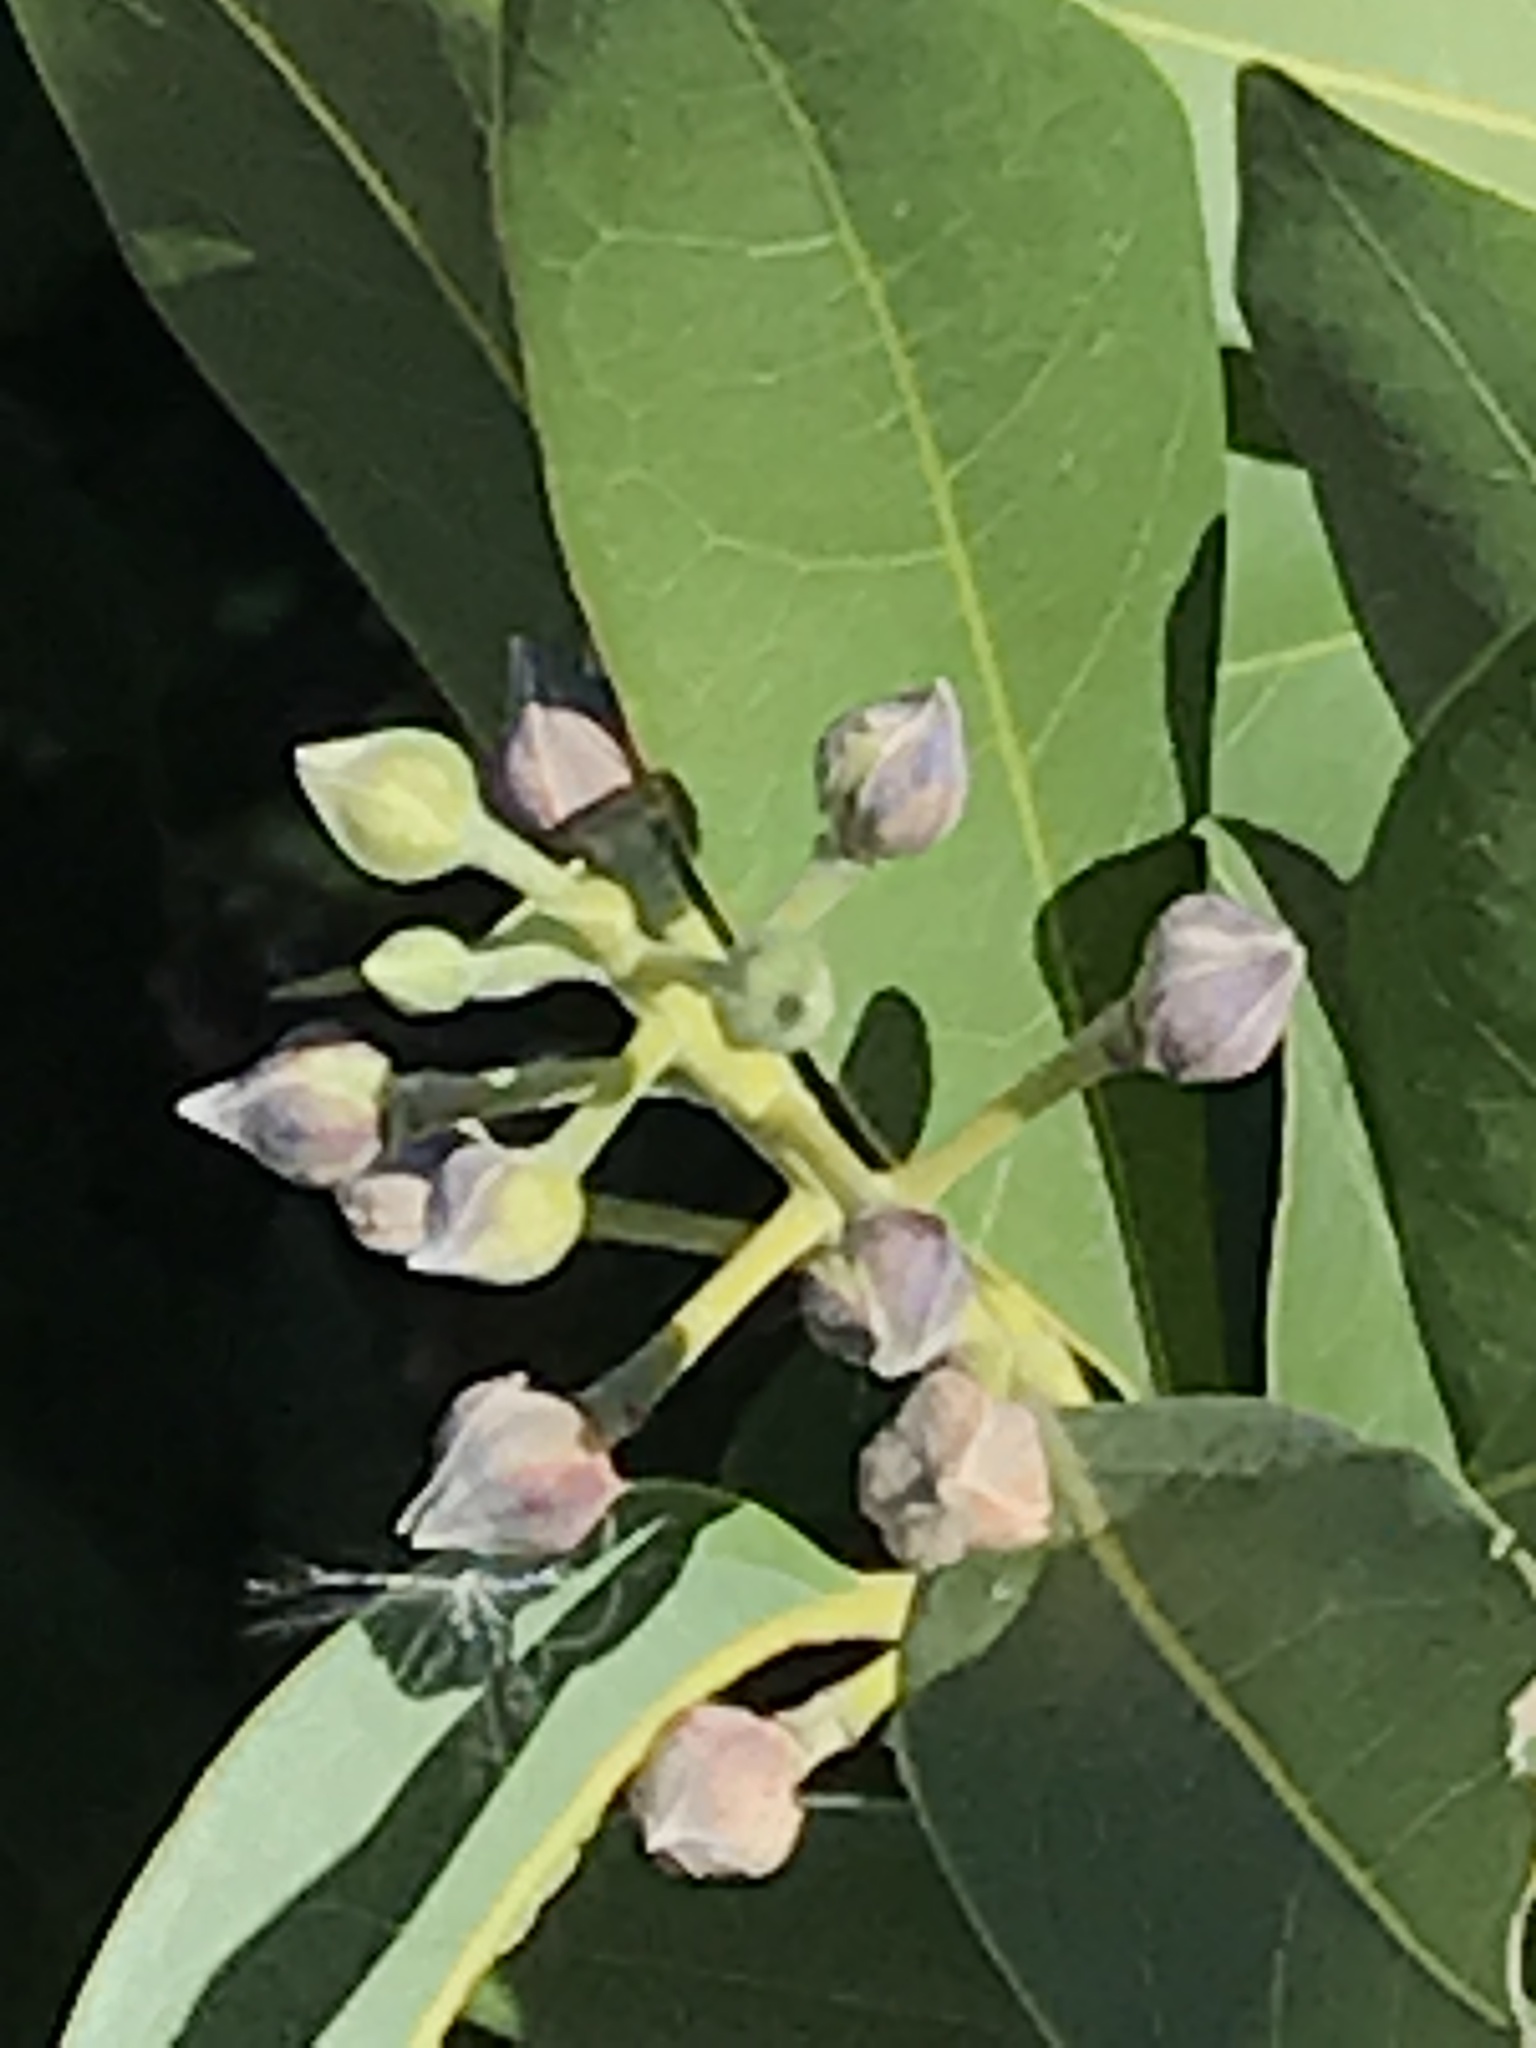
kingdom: Plantae
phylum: Tracheophyta
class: Magnoliopsida
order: Laurales
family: Lauraceae
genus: Umbellularia
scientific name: Umbellularia californica
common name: California bay
